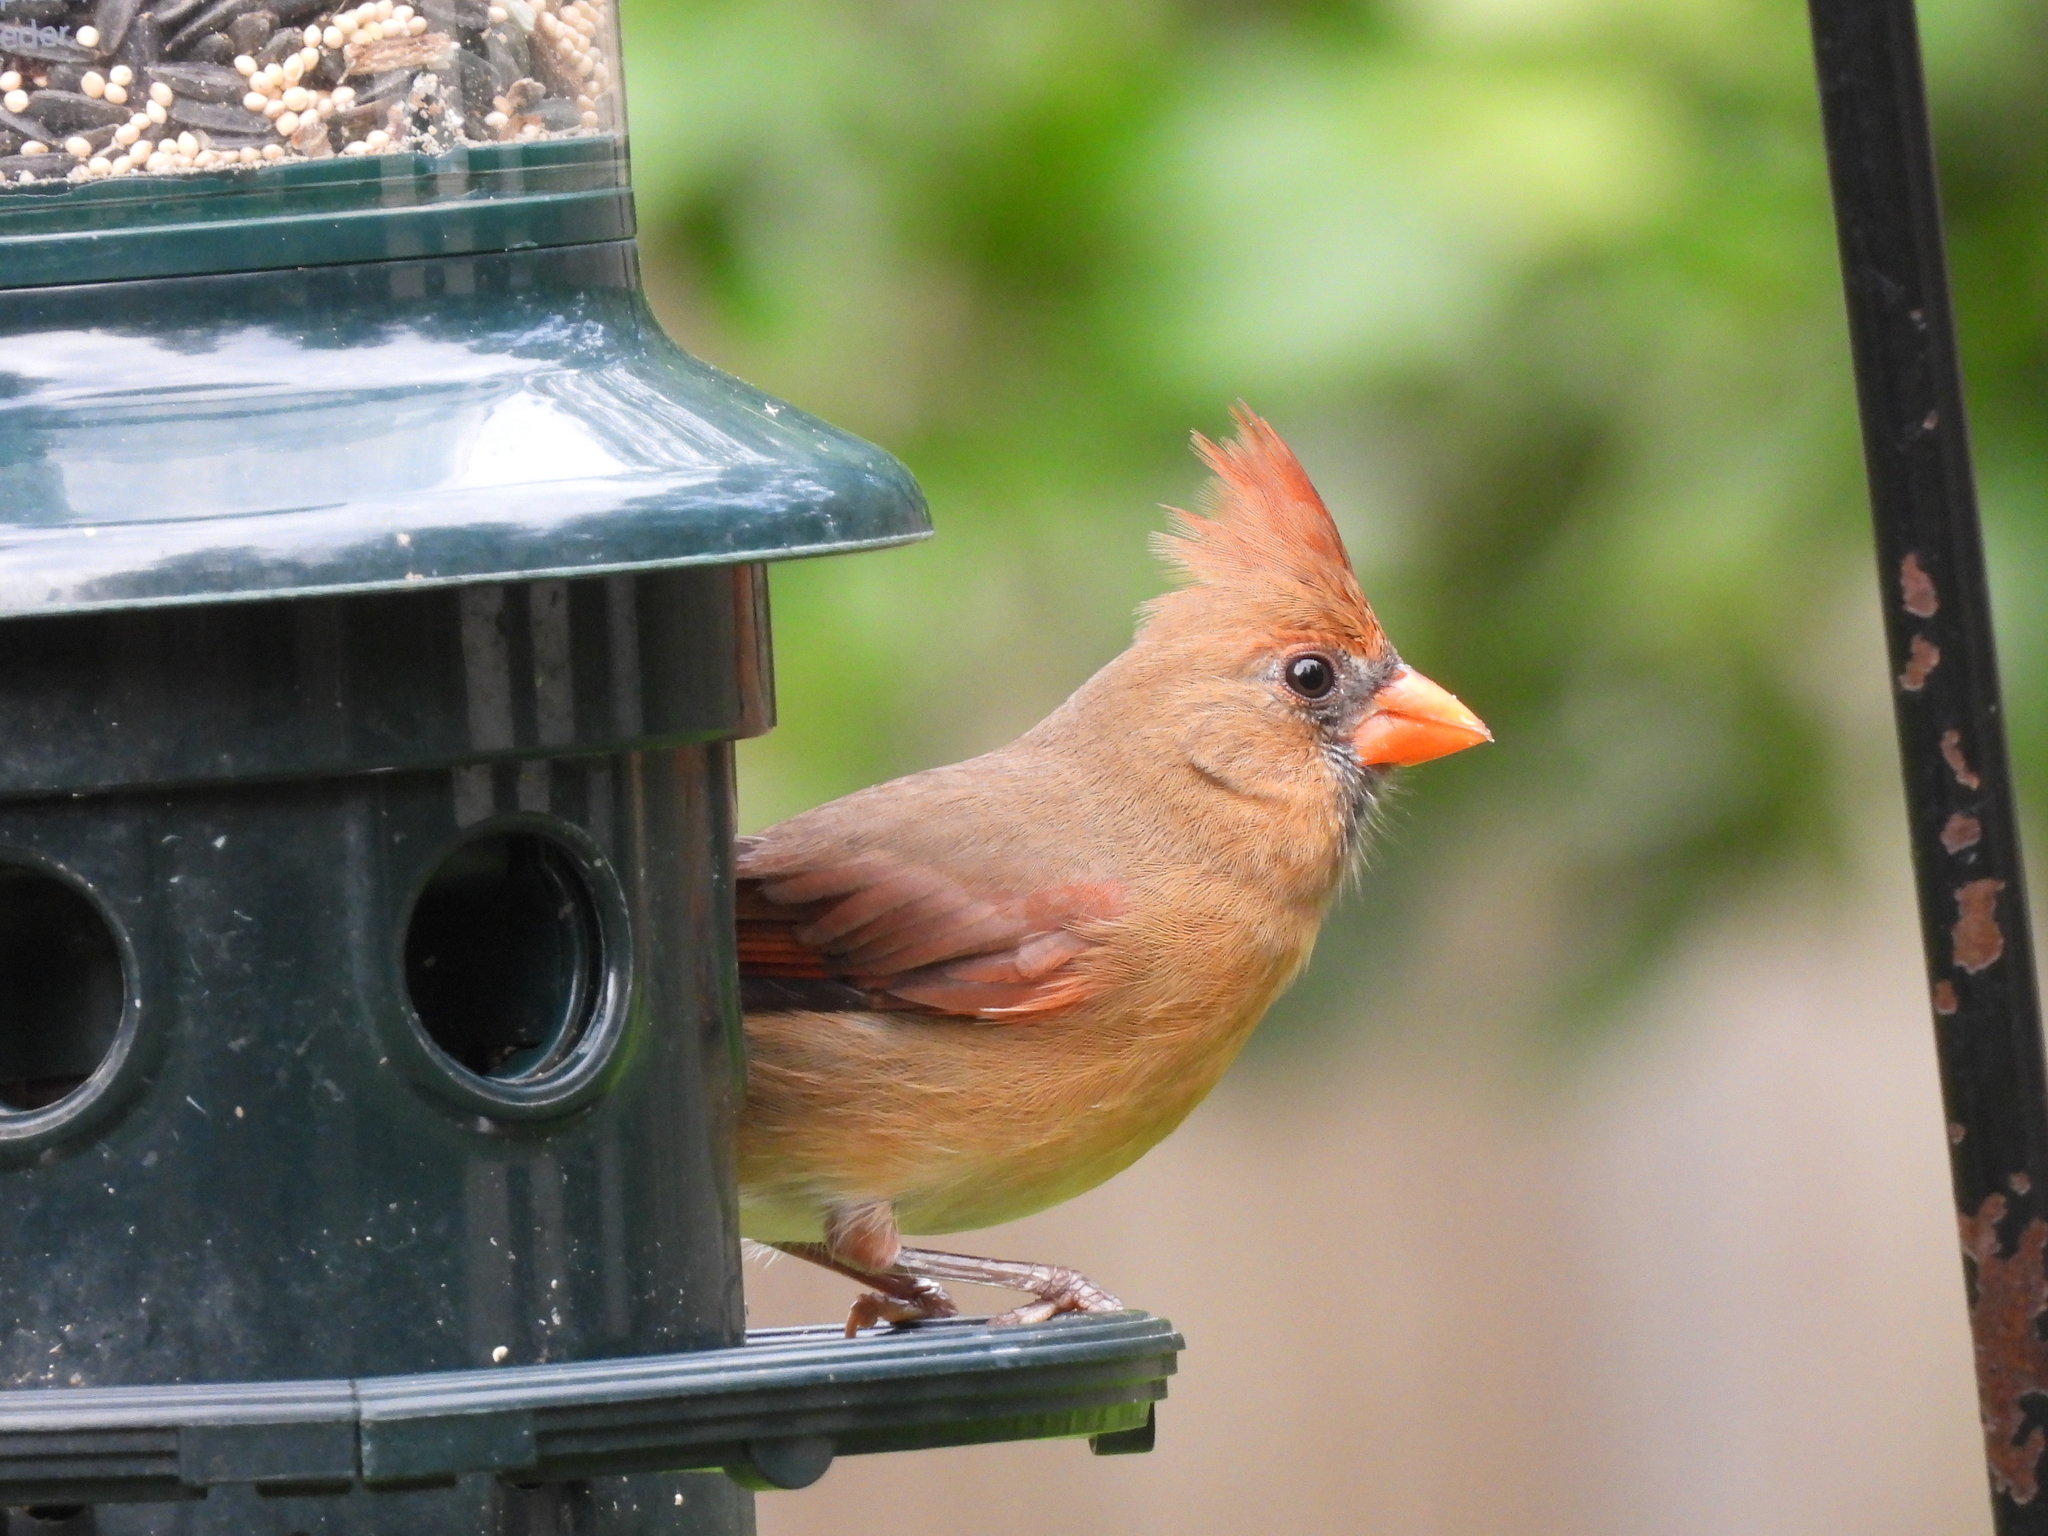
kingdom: Animalia
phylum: Chordata
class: Aves
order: Passeriformes
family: Cardinalidae
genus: Cardinalis
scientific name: Cardinalis cardinalis
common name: Northern cardinal
